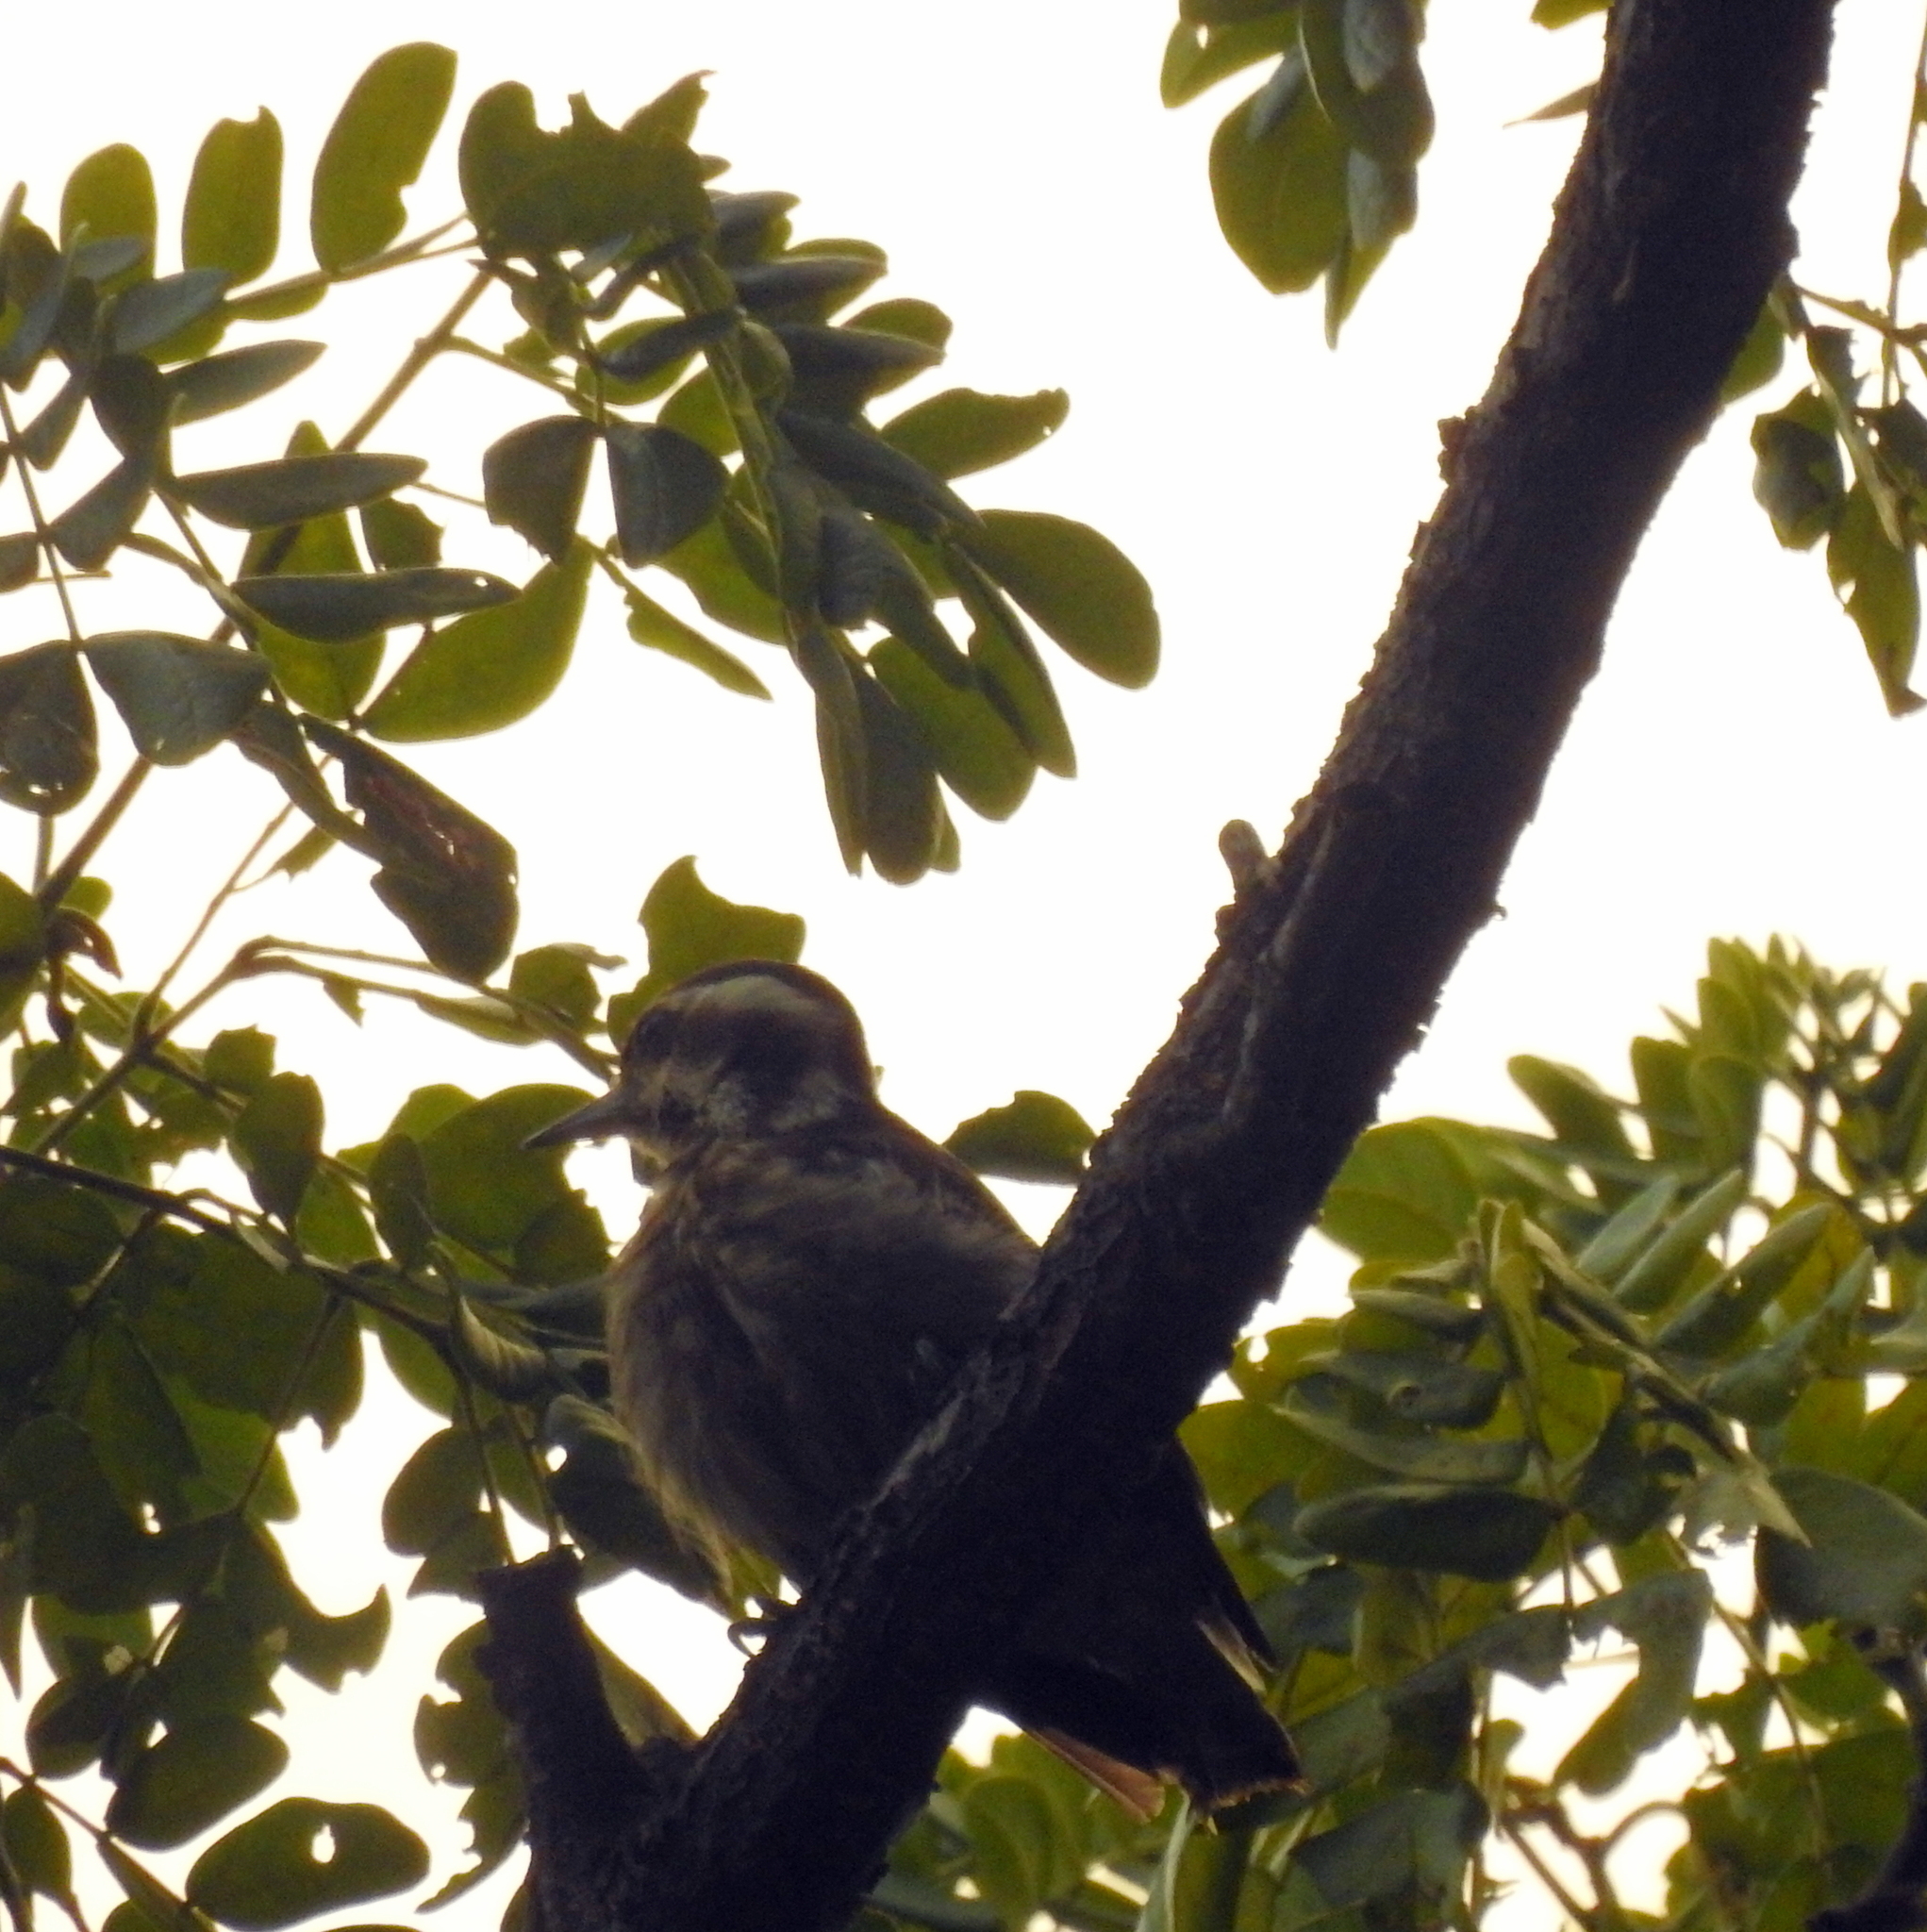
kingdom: Animalia
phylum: Chordata
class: Aves
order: Piciformes
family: Picidae
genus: Yungipicus
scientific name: Yungipicus moluccensis
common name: Sunda pygmy woodpecker
